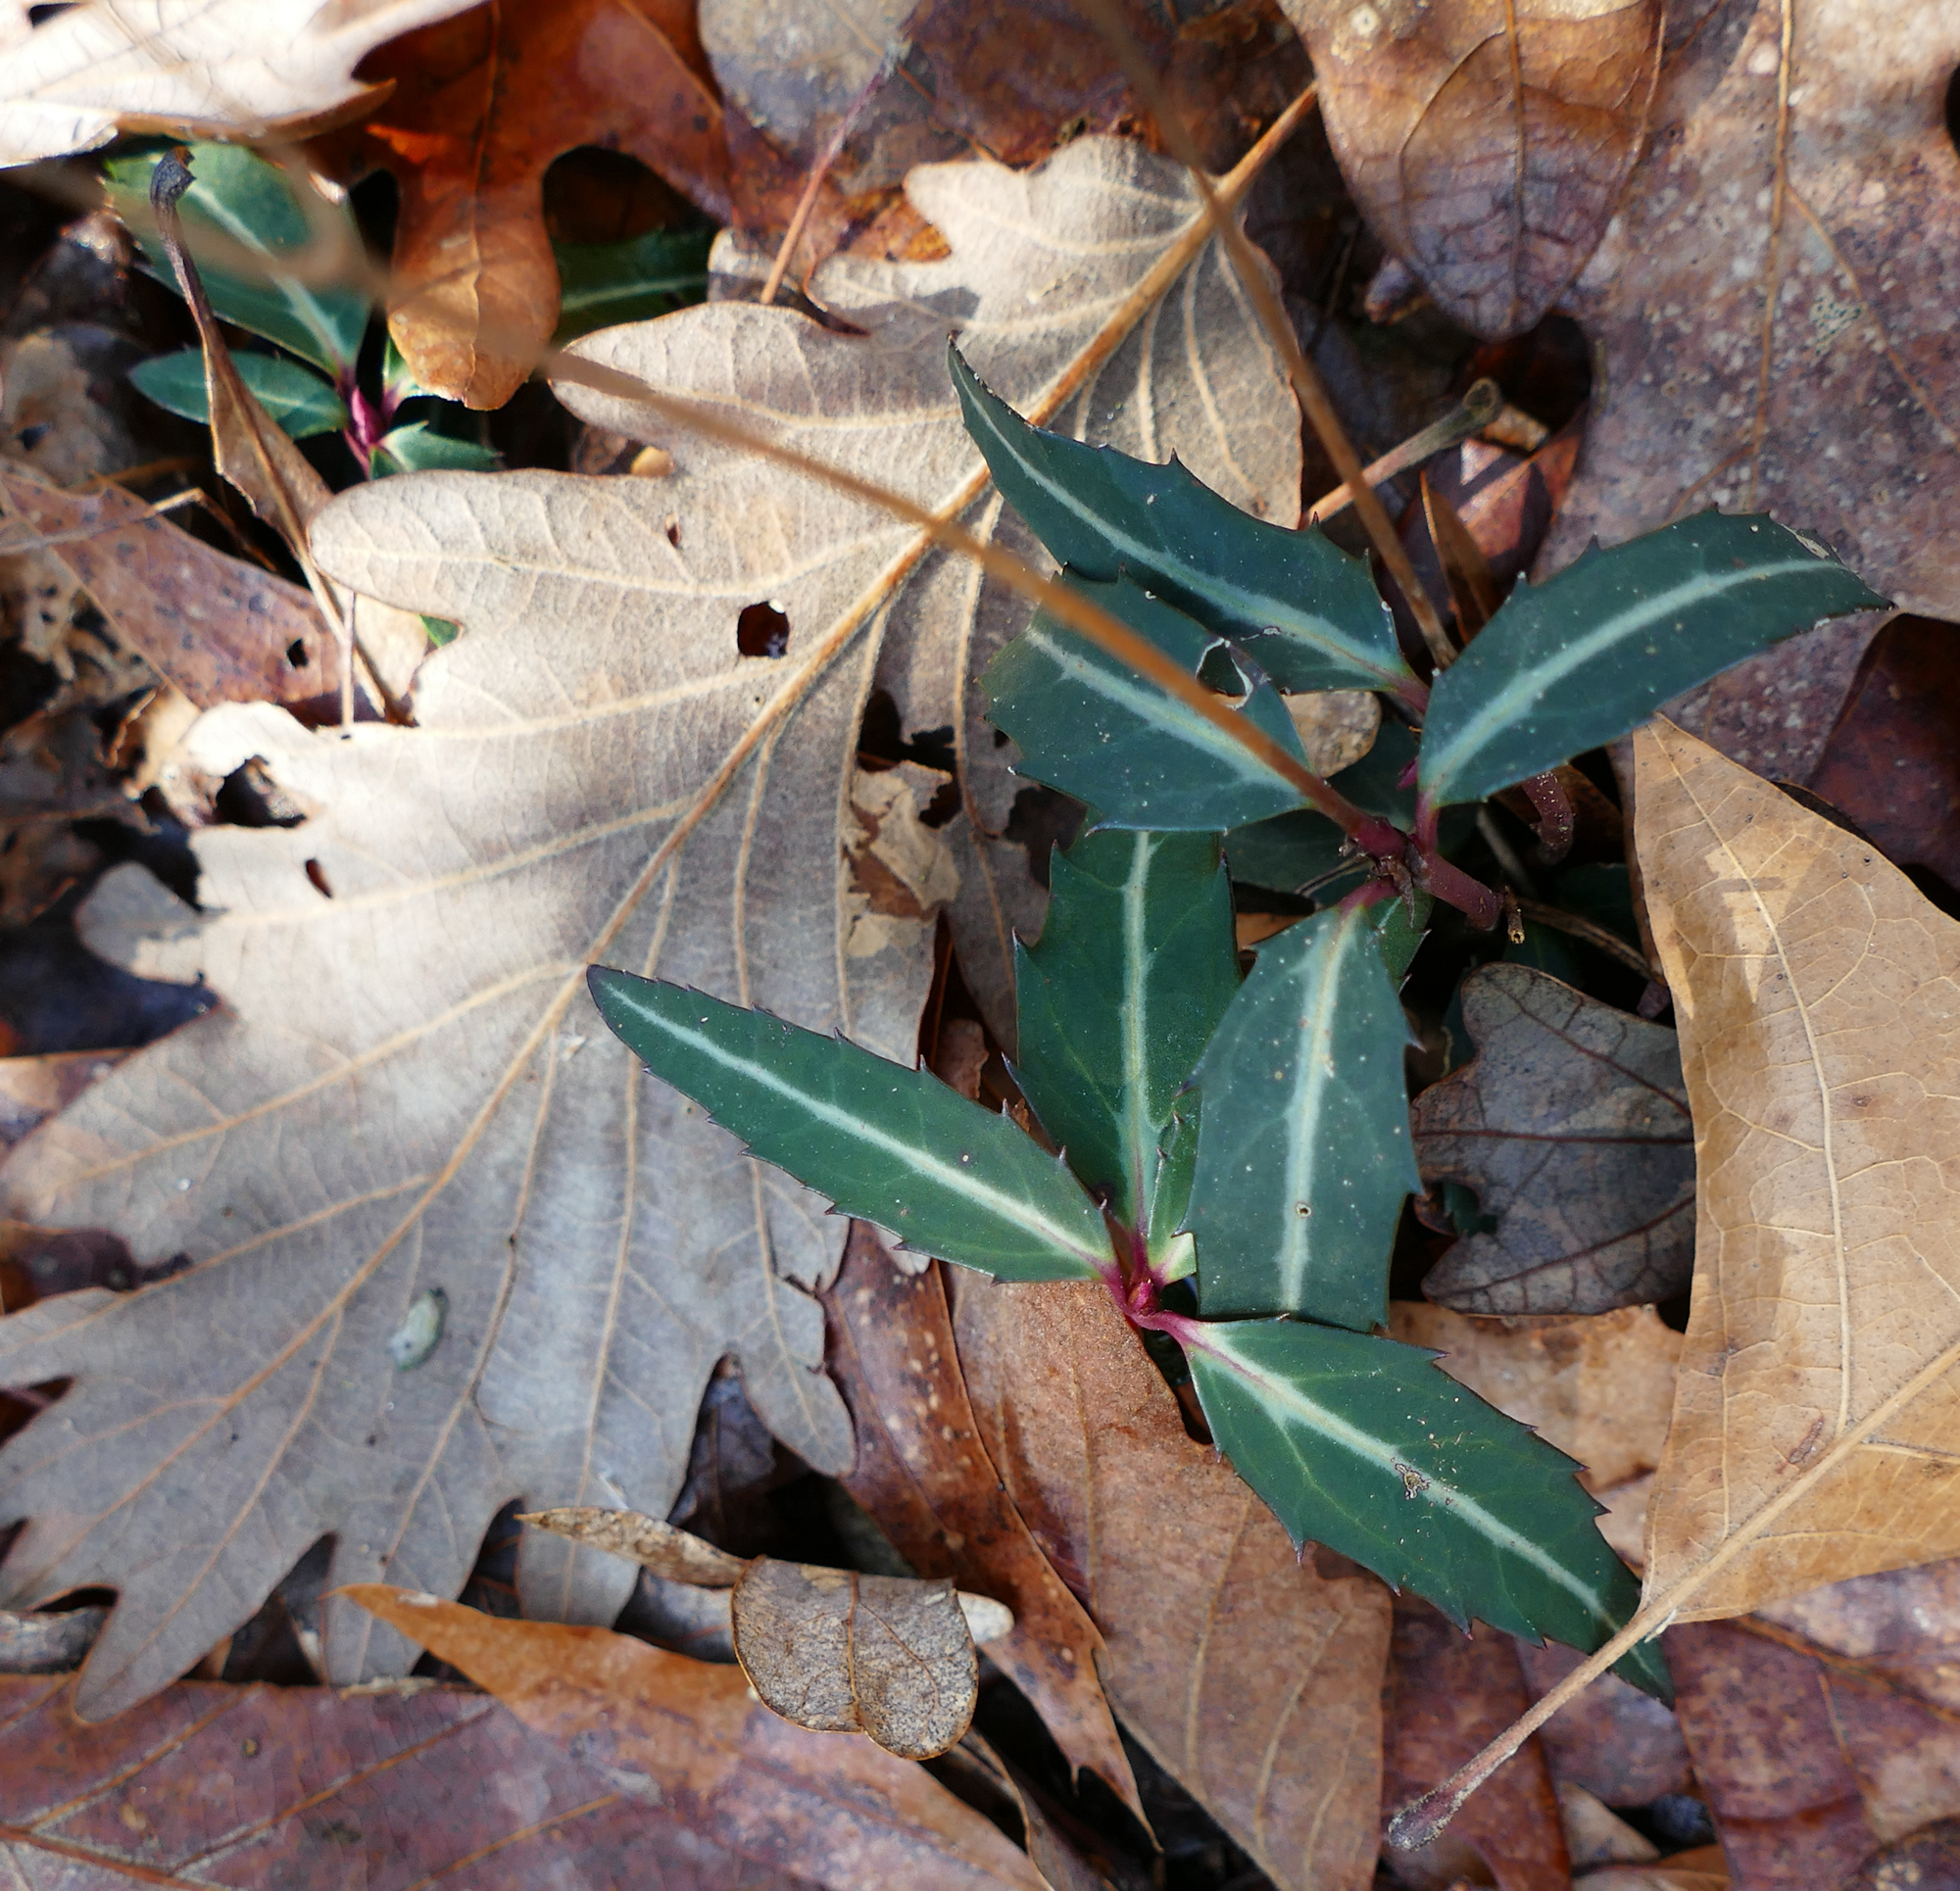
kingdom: Plantae
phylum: Tracheophyta
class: Magnoliopsida
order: Ericales
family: Ericaceae
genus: Chimaphila
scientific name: Chimaphila maculata
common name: Spotted pipsissewa
